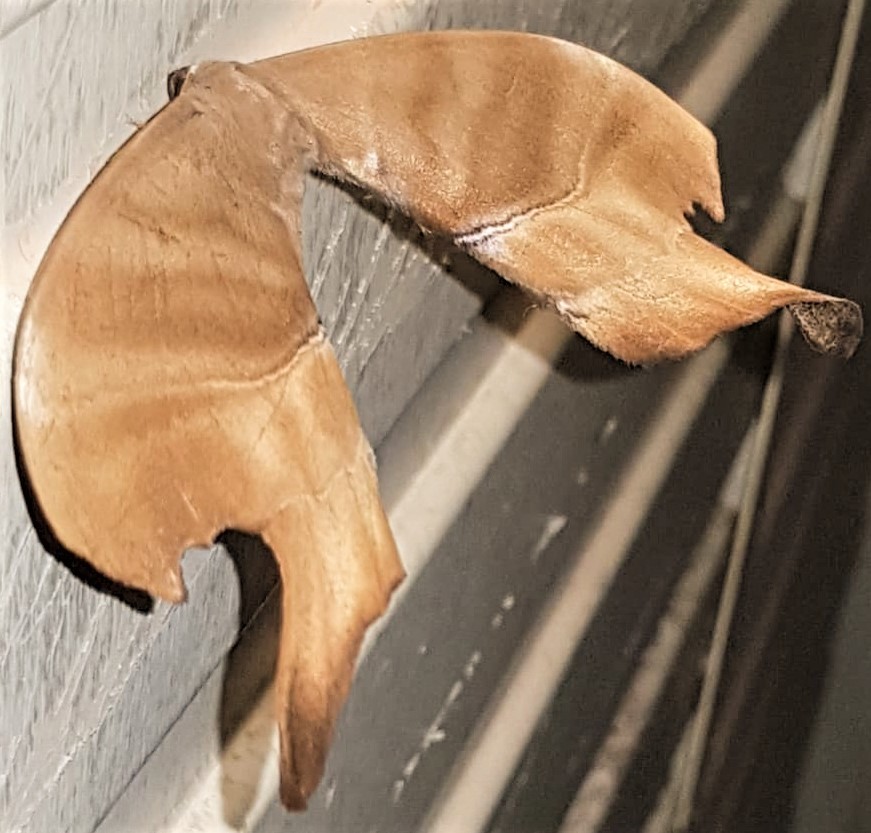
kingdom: Animalia
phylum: Arthropoda
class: Insecta
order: Lepidoptera
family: Saturniidae
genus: Paradaemonia
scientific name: Paradaemonia terrena
